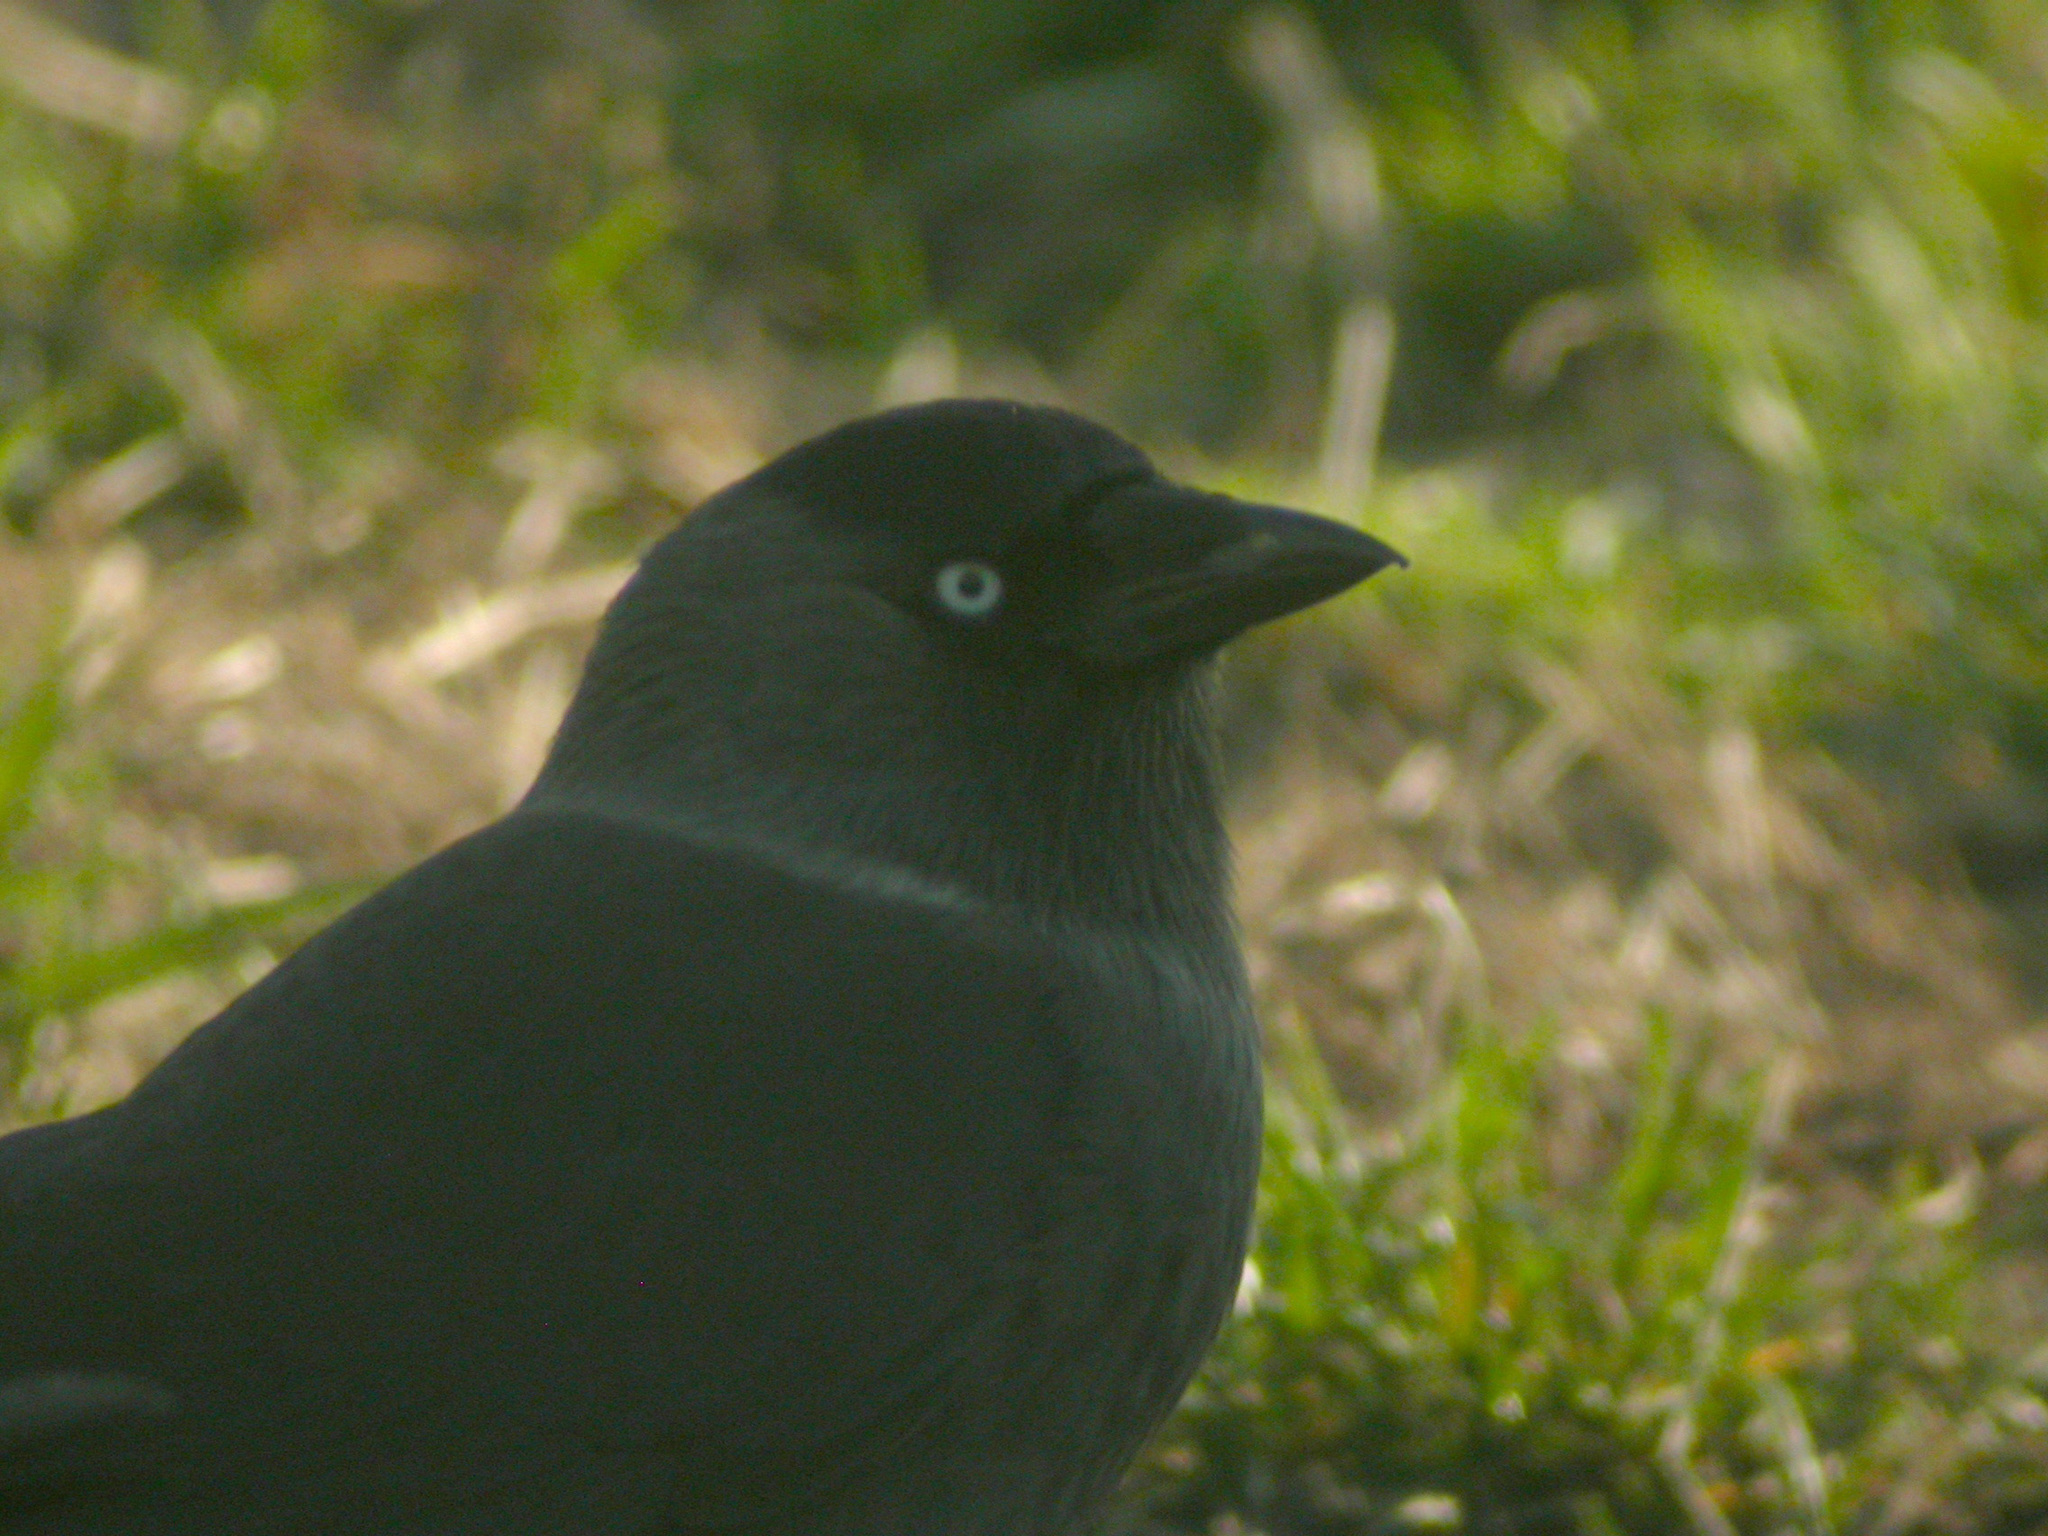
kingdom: Animalia
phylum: Chordata
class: Aves
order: Passeriformes
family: Corvidae
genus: Coloeus
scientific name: Coloeus monedula
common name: Western jackdaw
